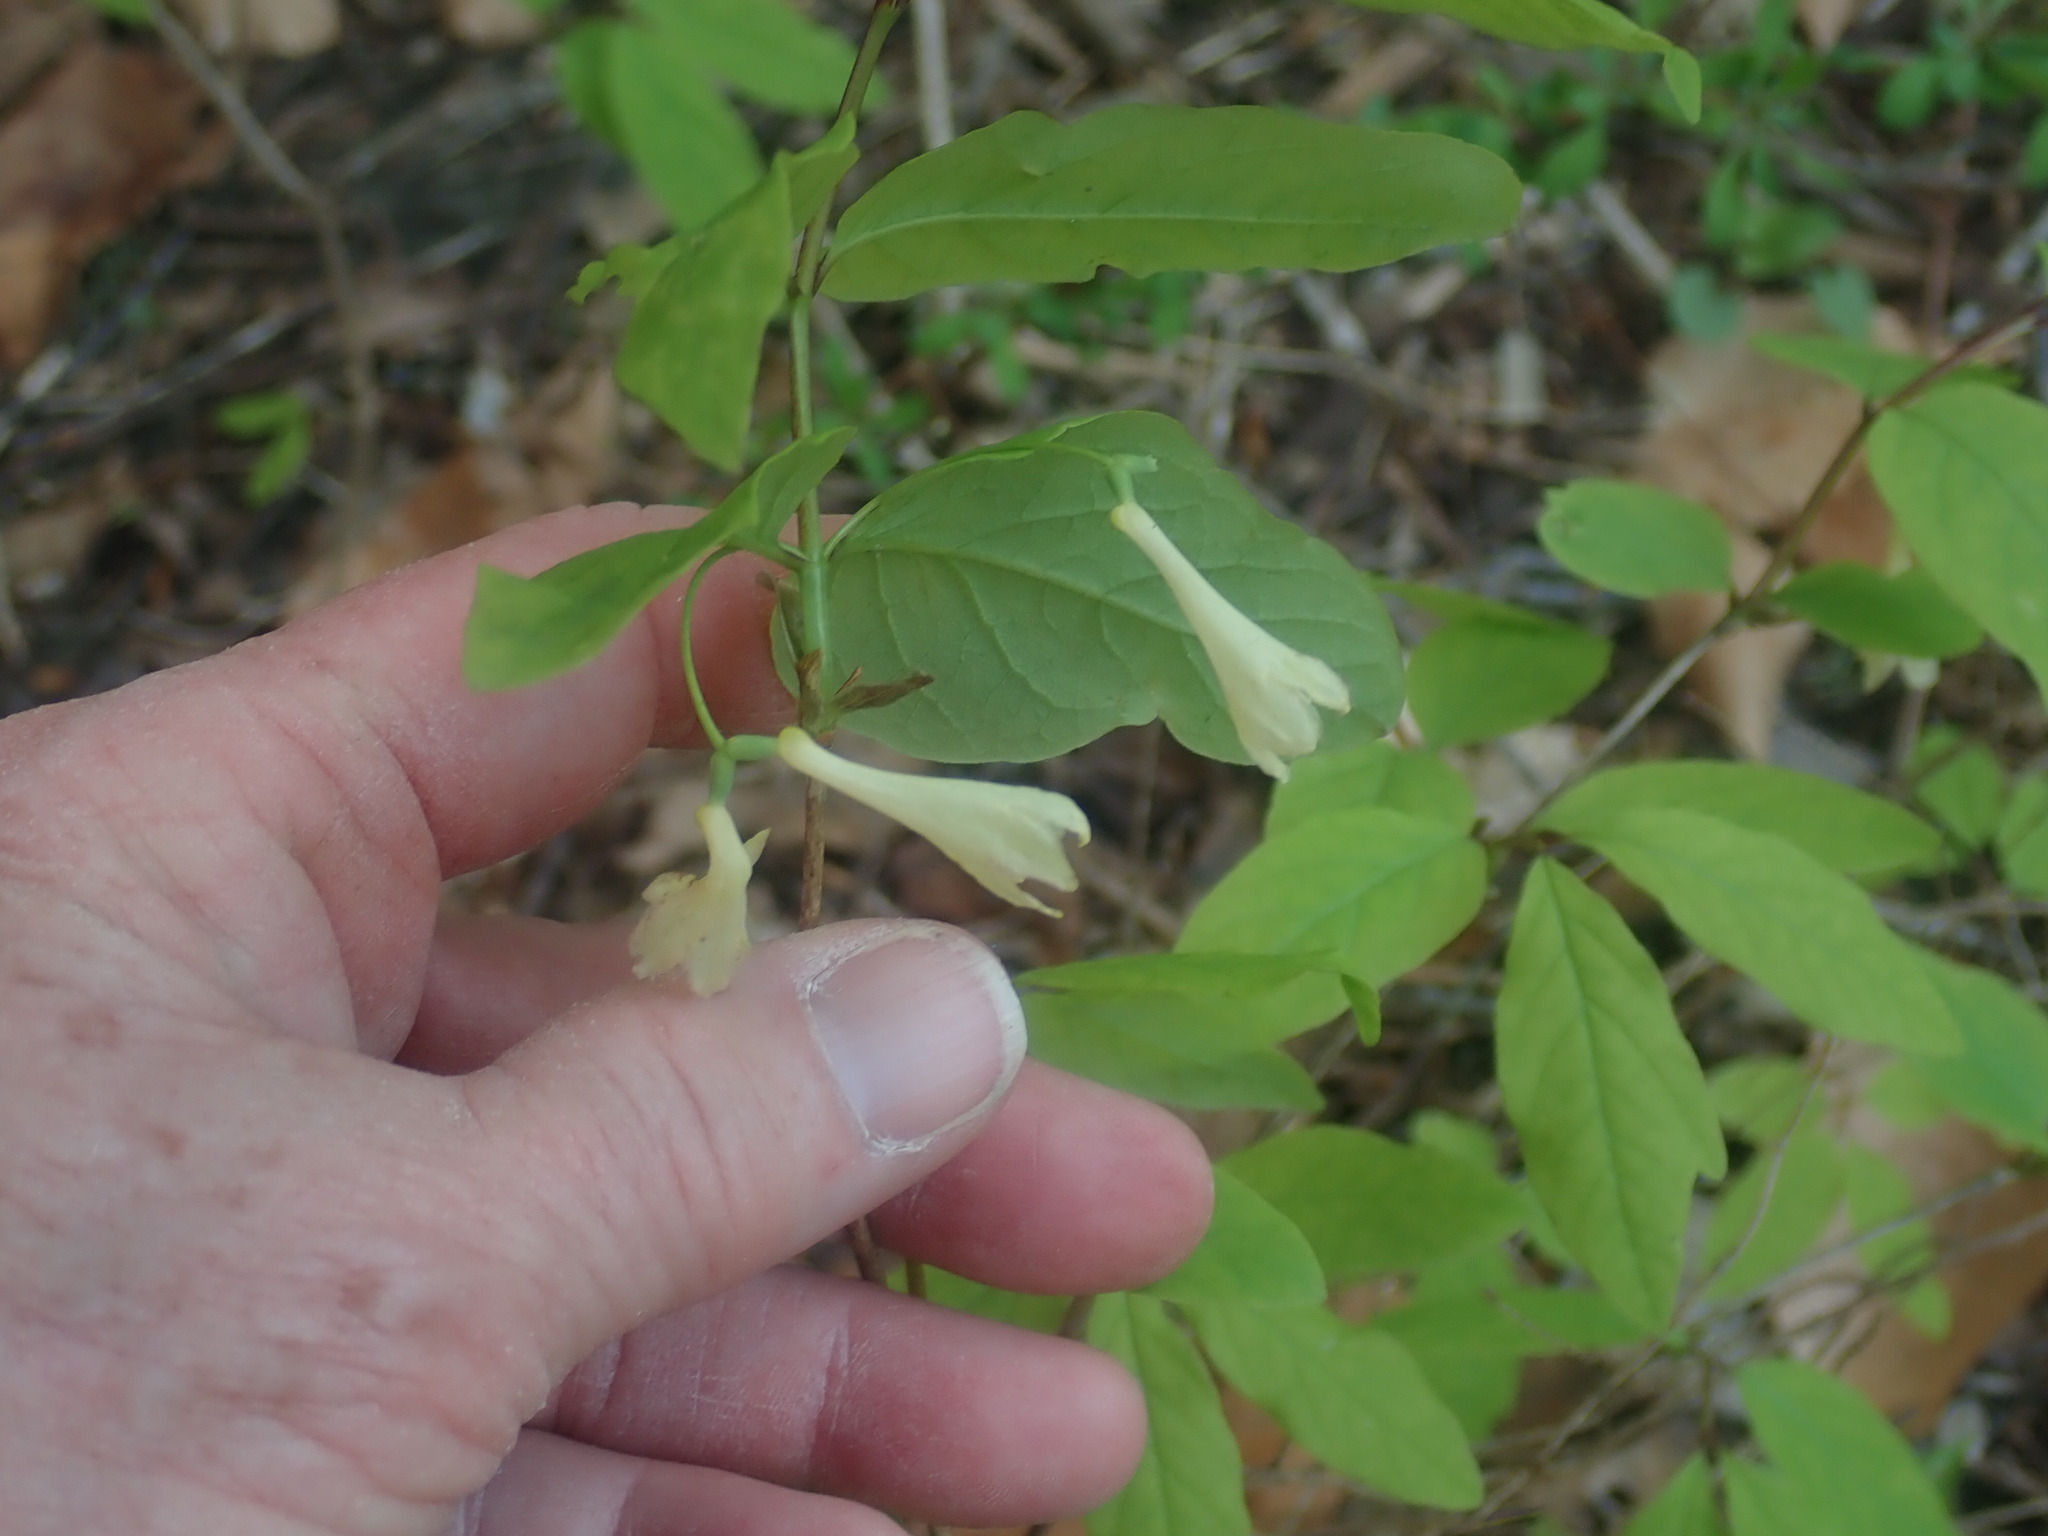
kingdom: Plantae
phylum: Tracheophyta
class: Magnoliopsida
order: Dipsacales
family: Caprifoliaceae
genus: Lonicera
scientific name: Lonicera canadensis
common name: American fly-honeysuckle
